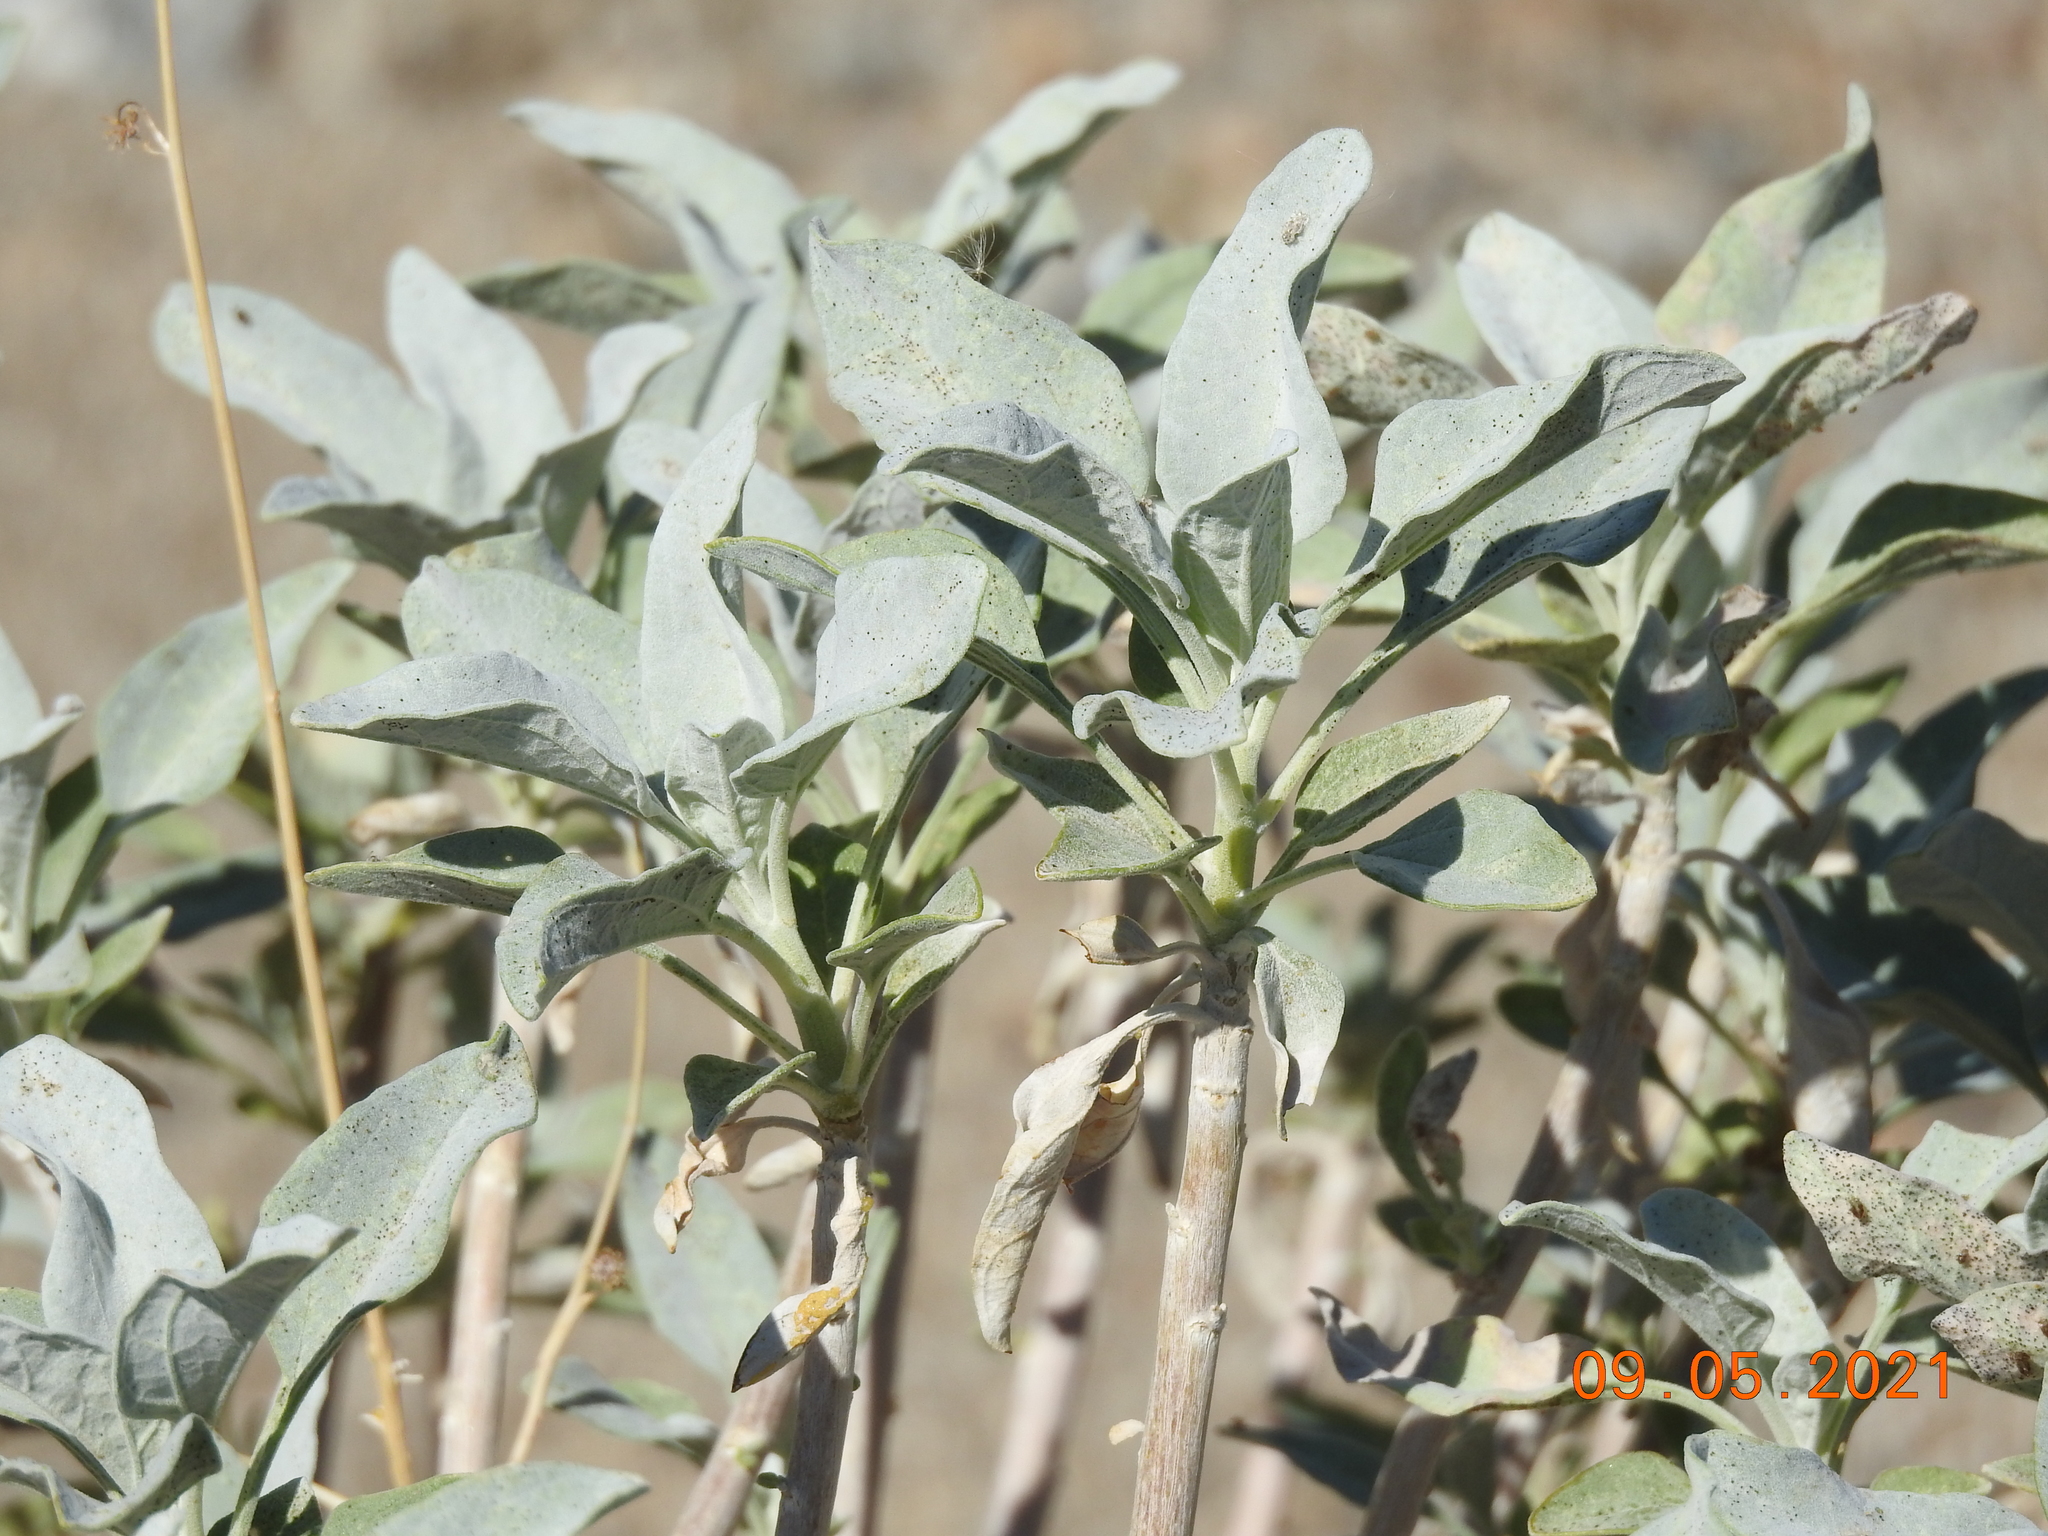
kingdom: Plantae
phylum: Tracheophyta
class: Magnoliopsida
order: Asterales
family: Asteraceae
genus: Encelia
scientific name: Encelia farinosa
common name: Brittlebush
